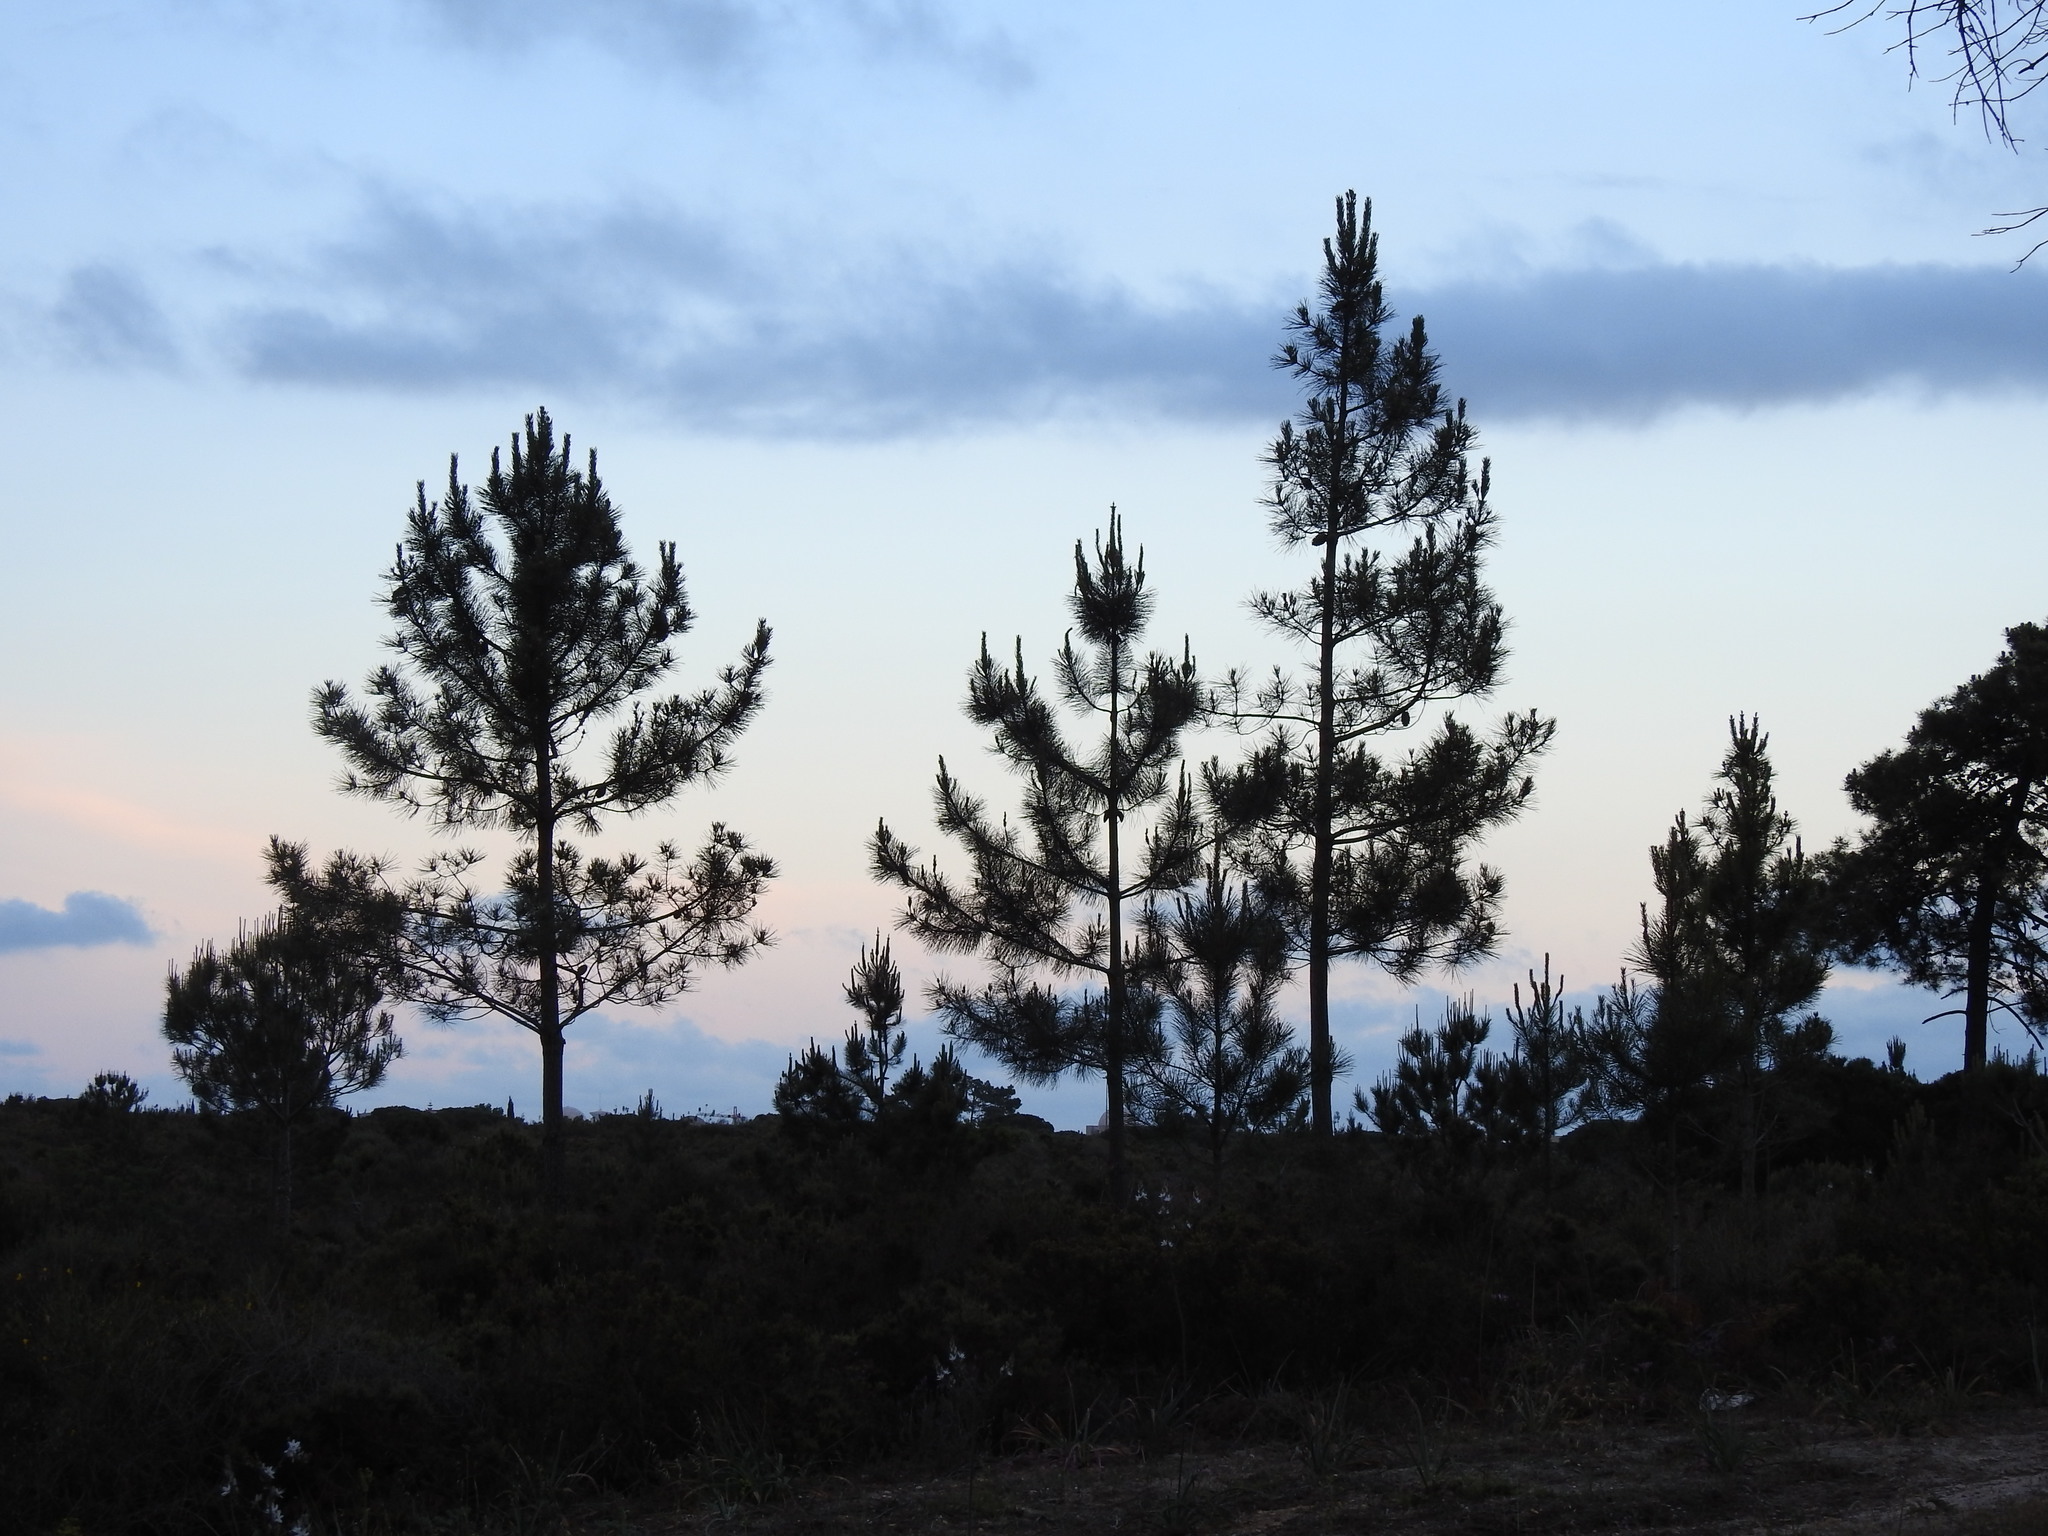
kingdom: Plantae
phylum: Tracheophyta
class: Pinopsida
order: Pinales
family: Pinaceae
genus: Pinus
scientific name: Pinus pinaster
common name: Maritime pine
